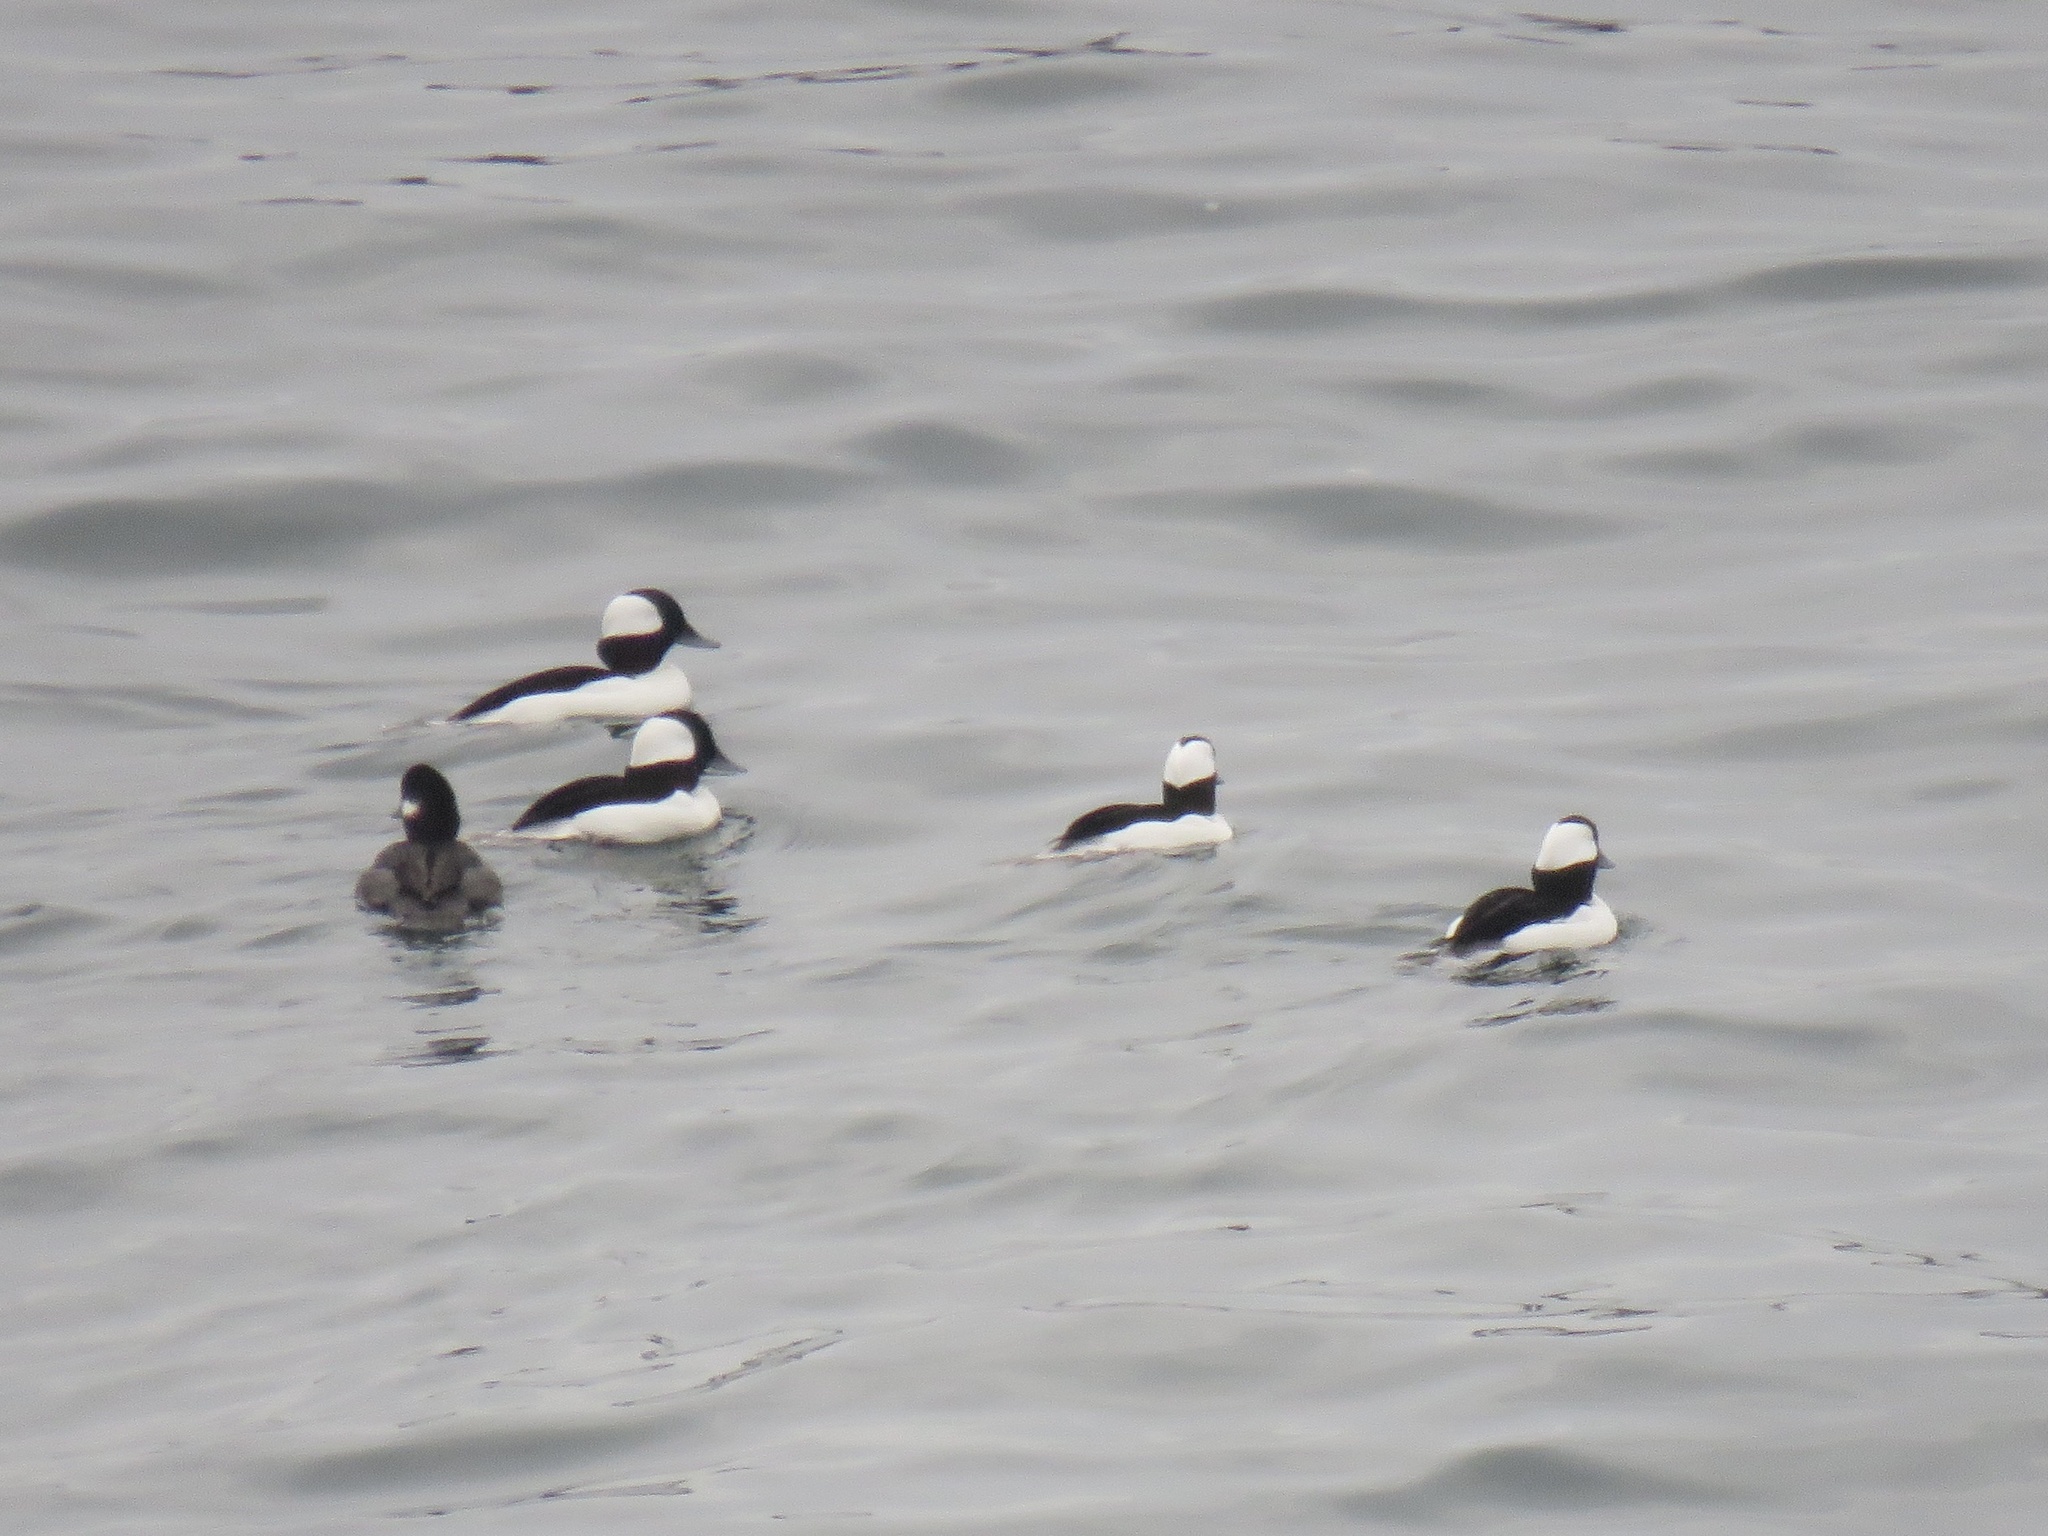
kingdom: Animalia
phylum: Chordata
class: Aves
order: Anseriformes
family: Anatidae
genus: Bucephala
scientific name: Bucephala albeola
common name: Bufflehead
